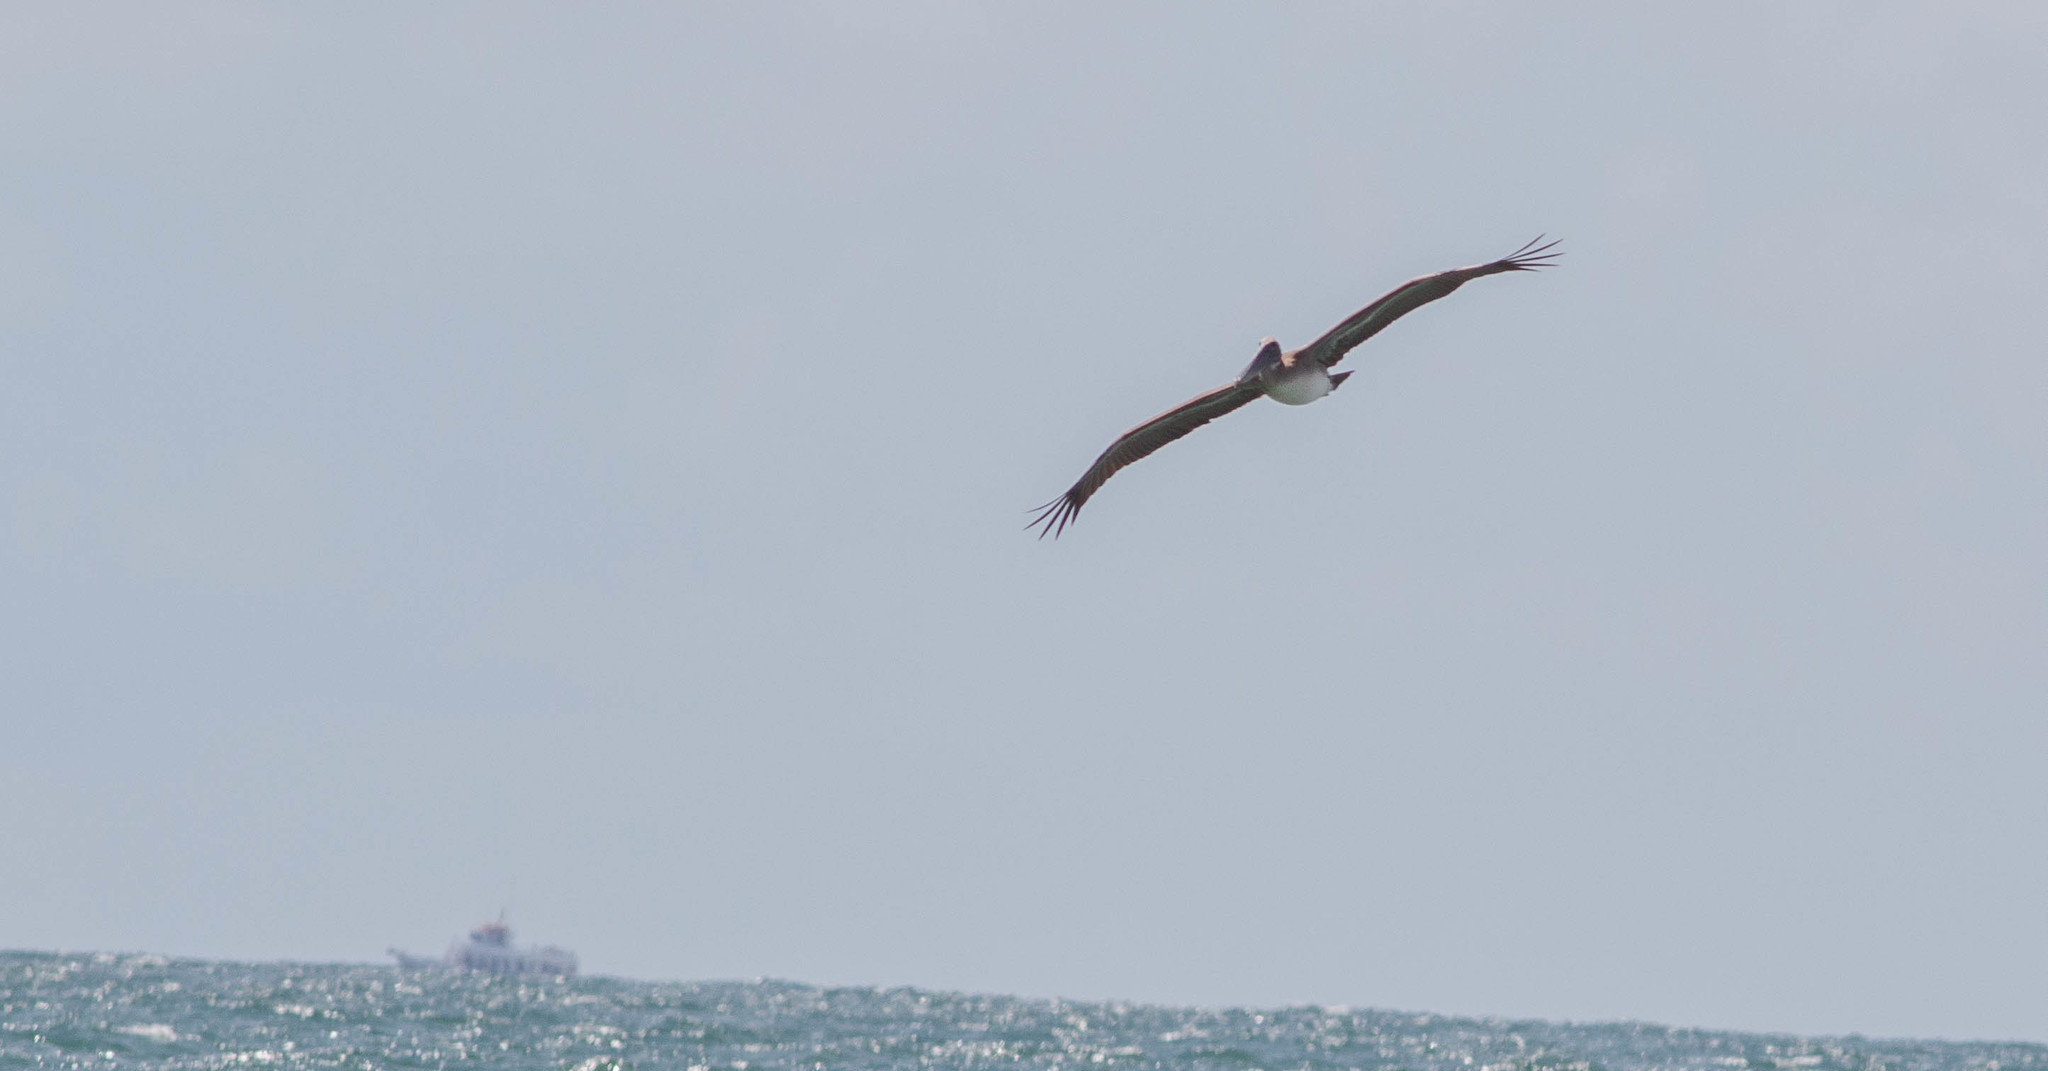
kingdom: Animalia
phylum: Chordata
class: Aves
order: Pelecaniformes
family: Pelecanidae
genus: Pelecanus
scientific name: Pelecanus occidentalis
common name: Brown pelican
